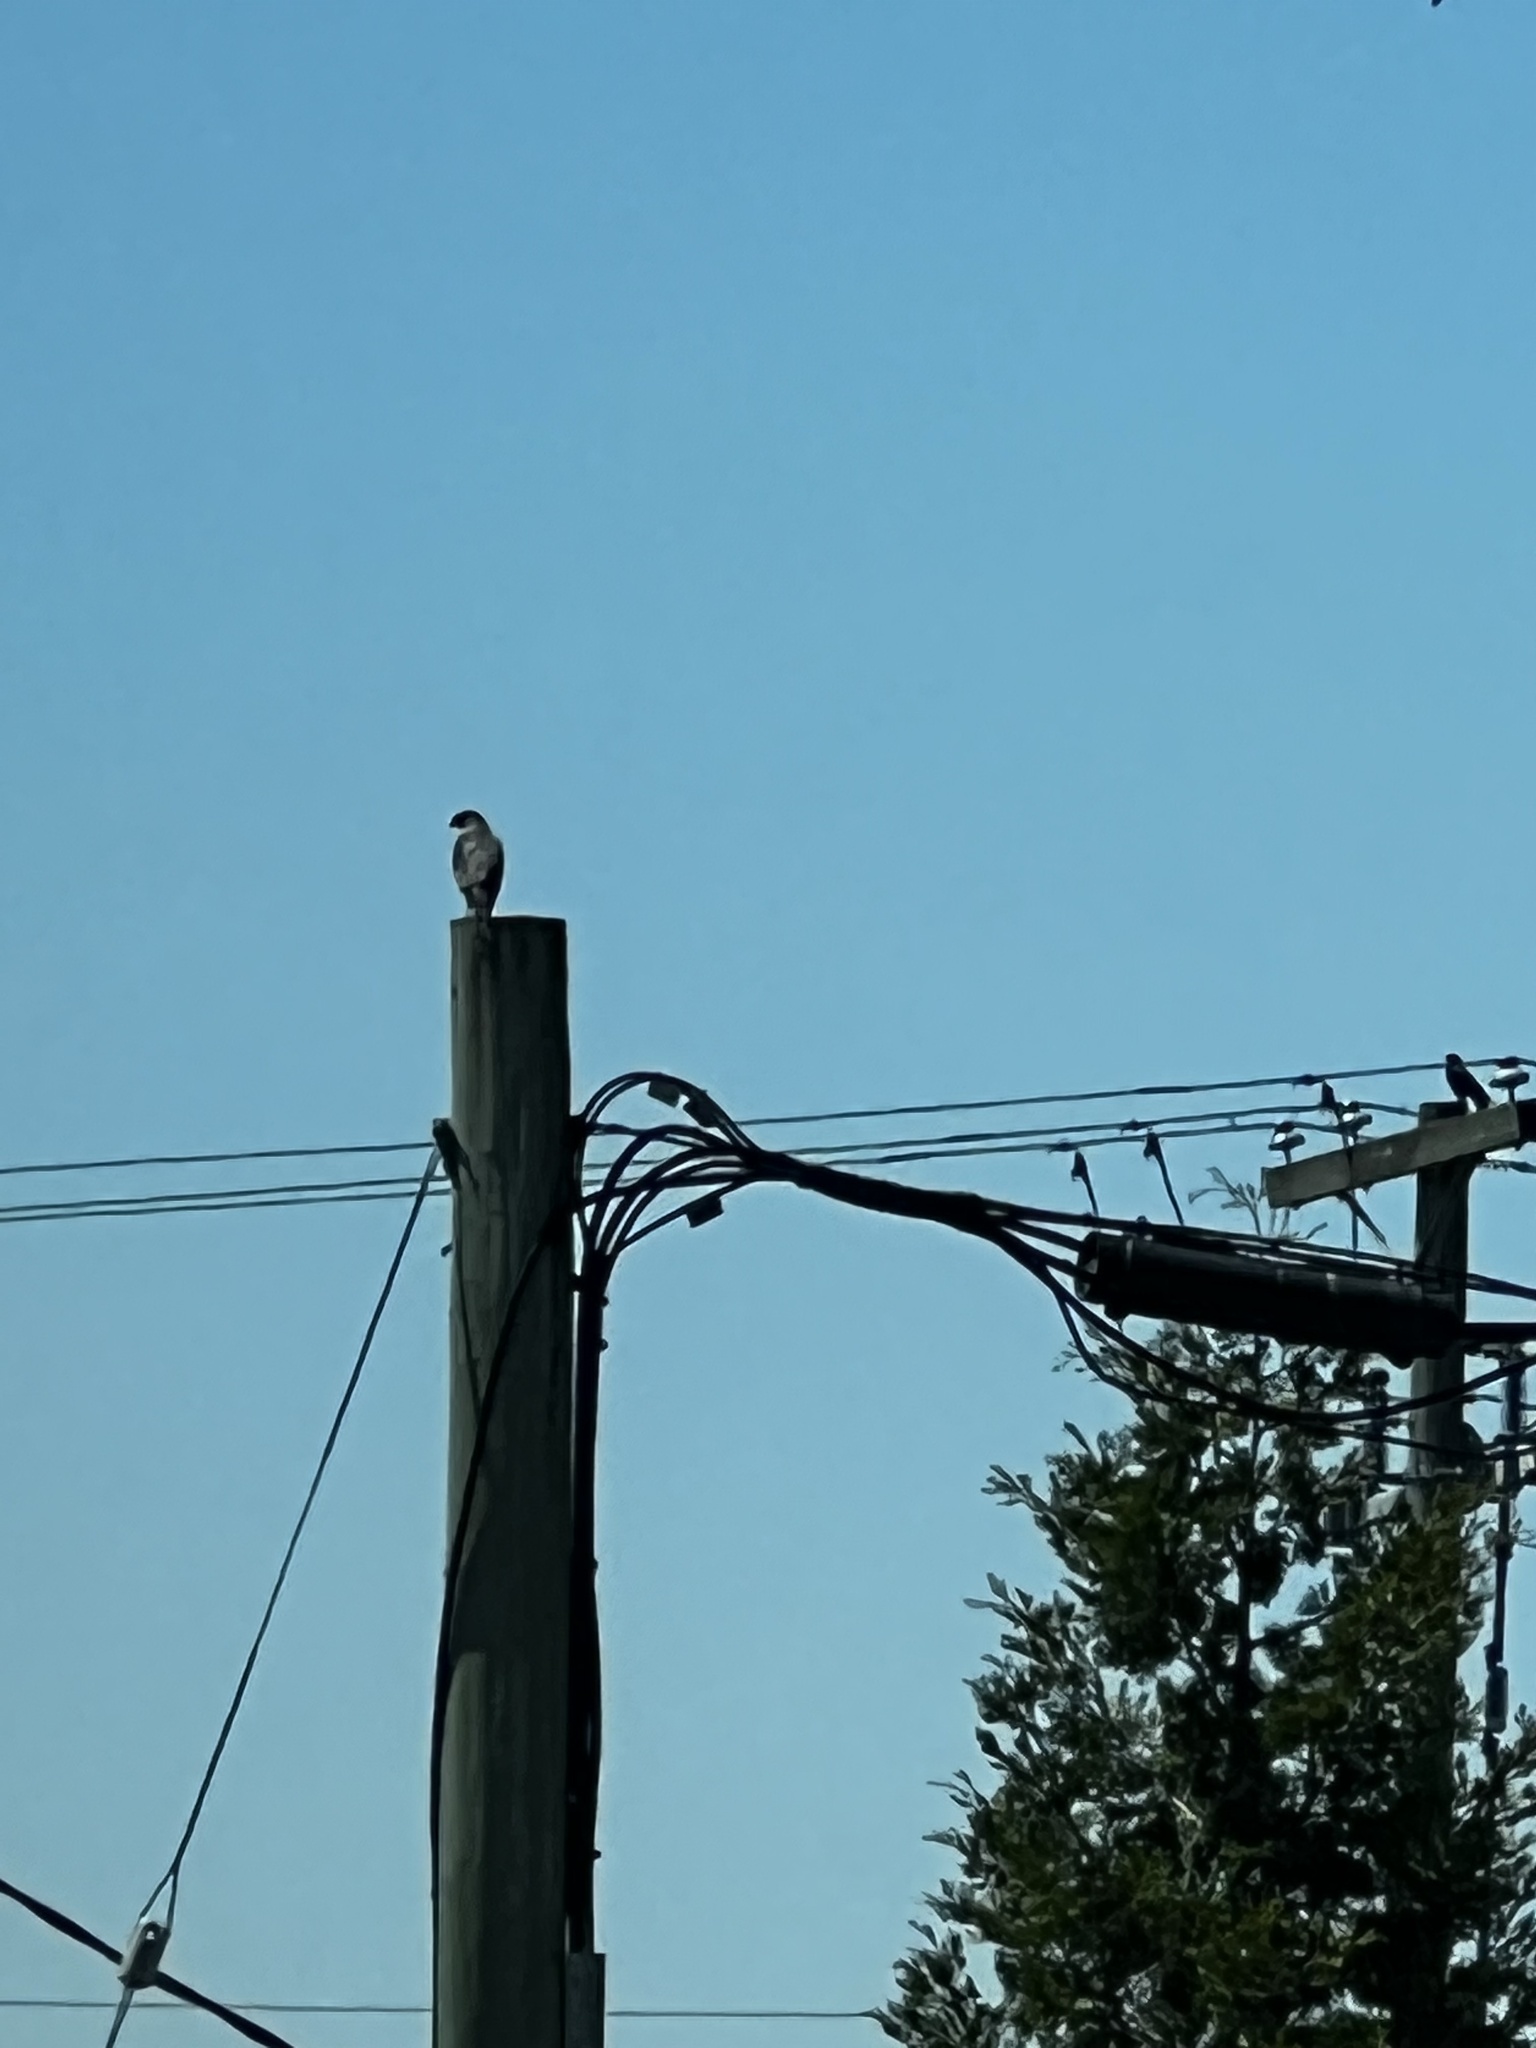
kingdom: Animalia
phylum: Chordata
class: Aves
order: Accipitriformes
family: Accipitridae
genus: Accipiter
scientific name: Accipiter cooperii
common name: Cooper's hawk
